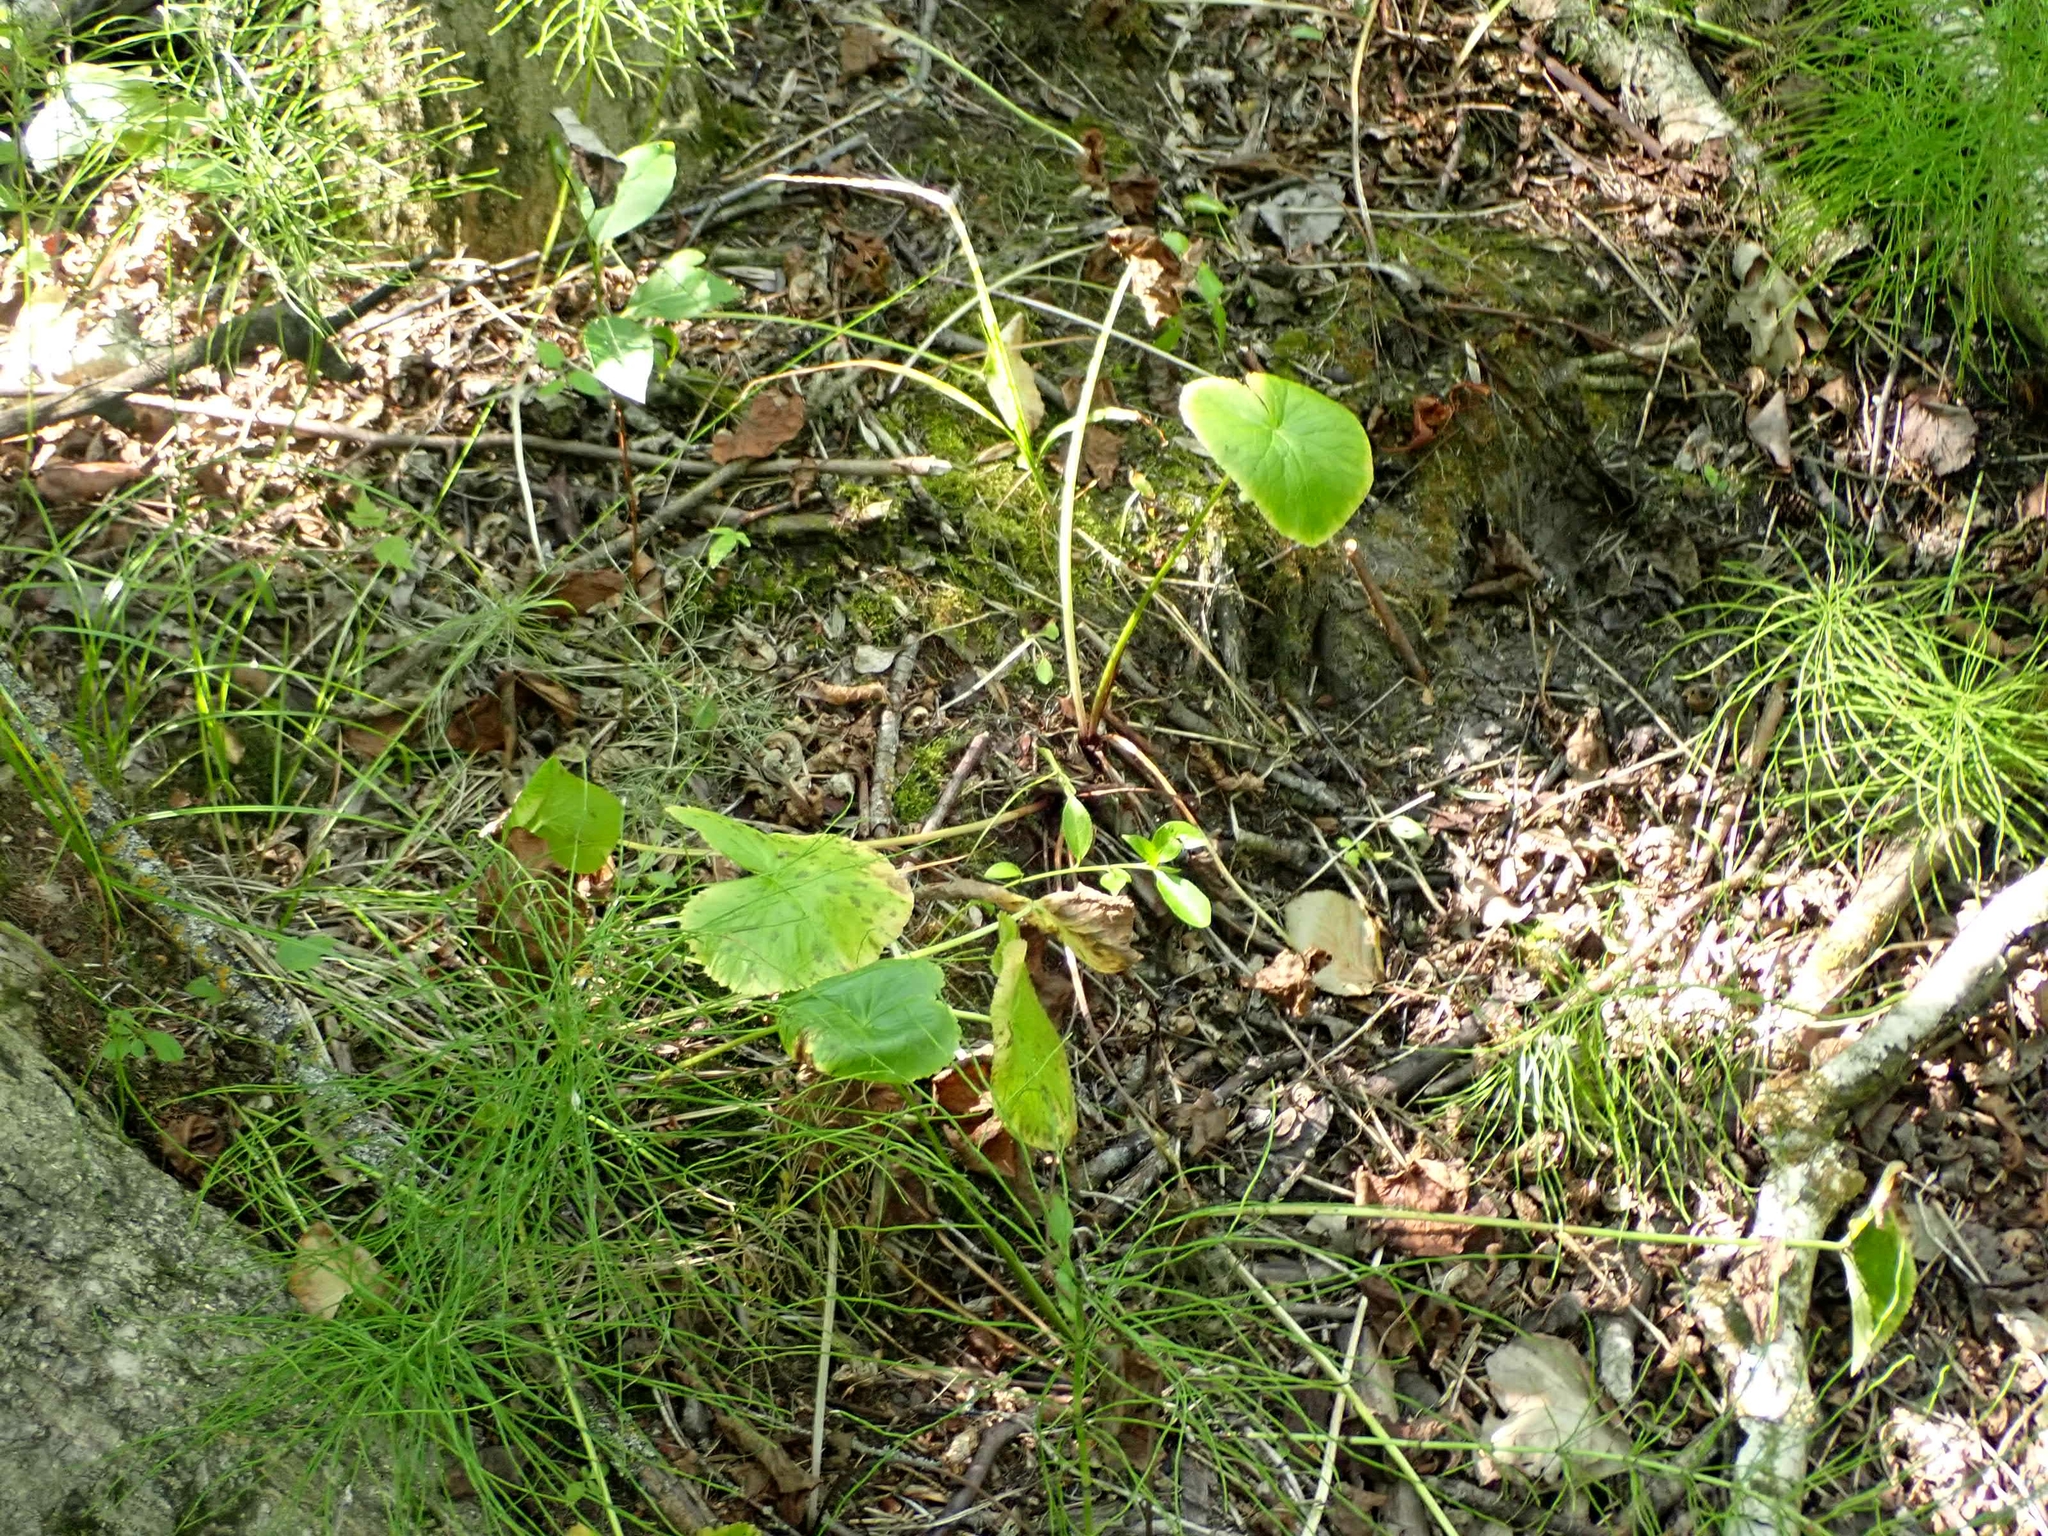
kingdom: Plantae
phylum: Tracheophyta
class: Magnoliopsida
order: Ranunculales
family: Ranunculaceae
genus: Caltha
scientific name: Caltha palustris
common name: Marsh marigold
